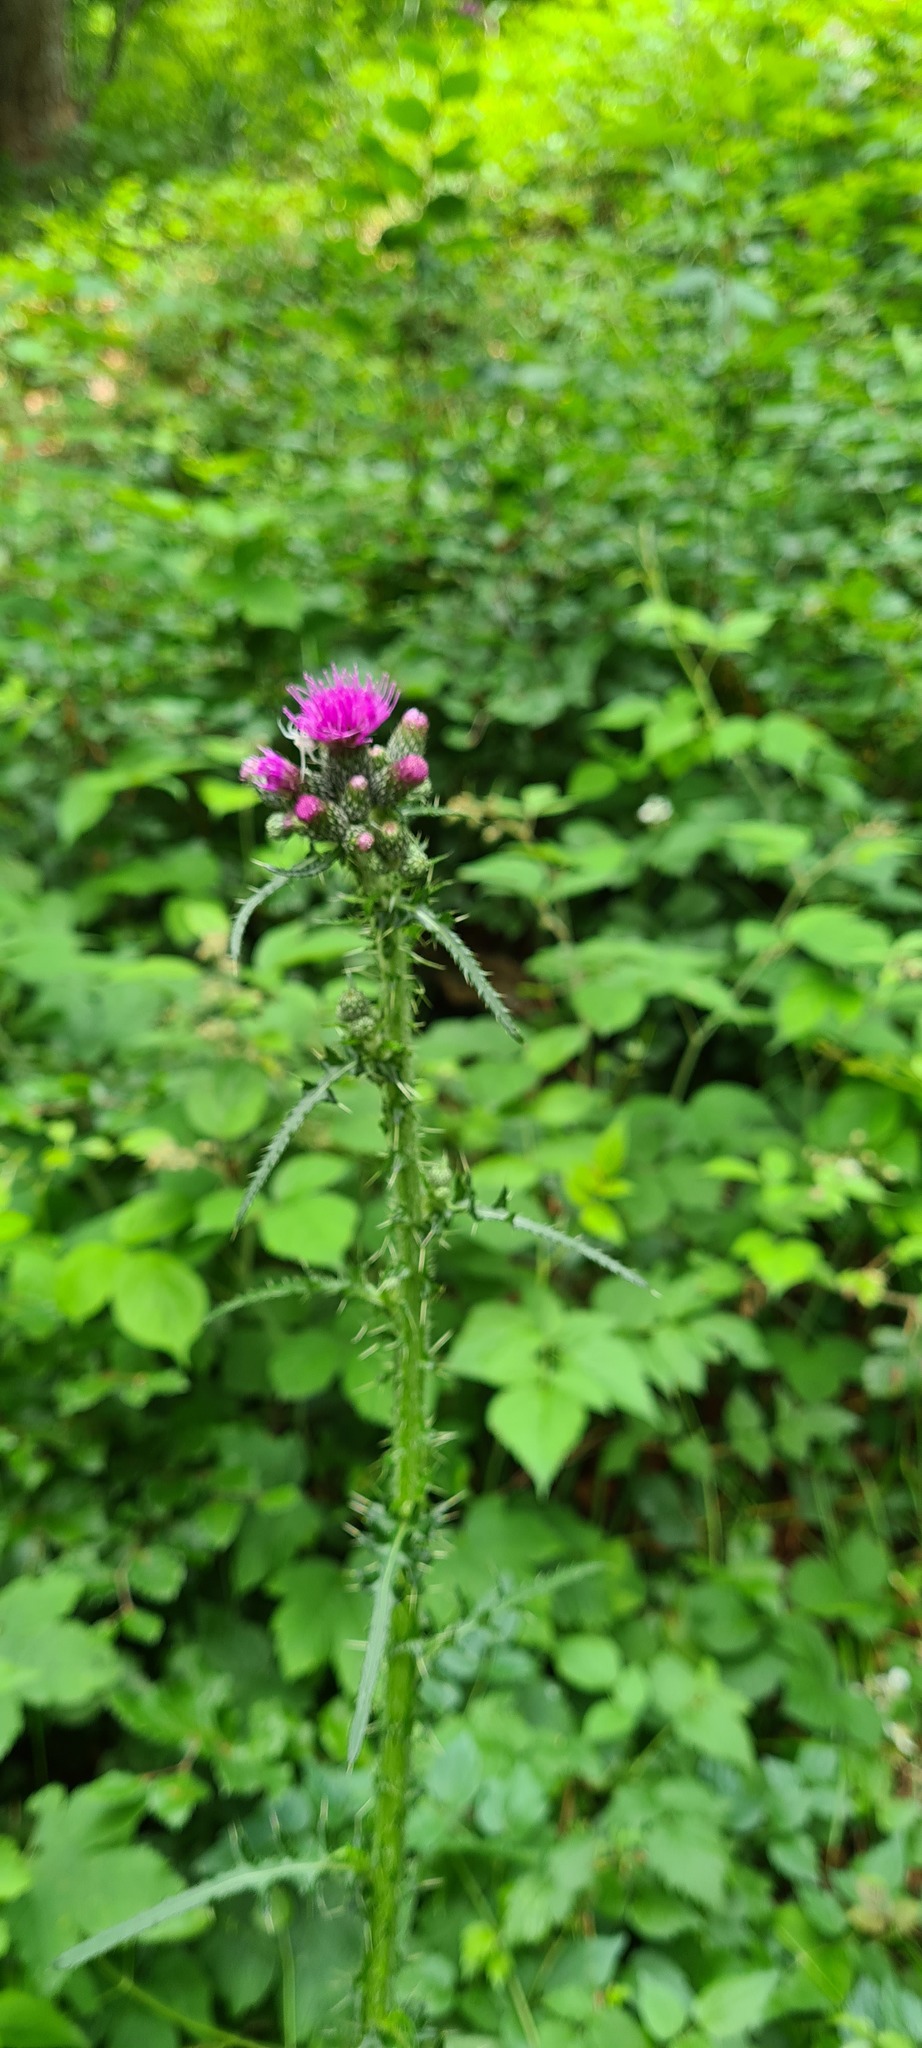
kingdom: Plantae
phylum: Tracheophyta
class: Magnoliopsida
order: Asterales
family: Asteraceae
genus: Cirsium
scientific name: Cirsium palustre
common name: Marsh thistle
